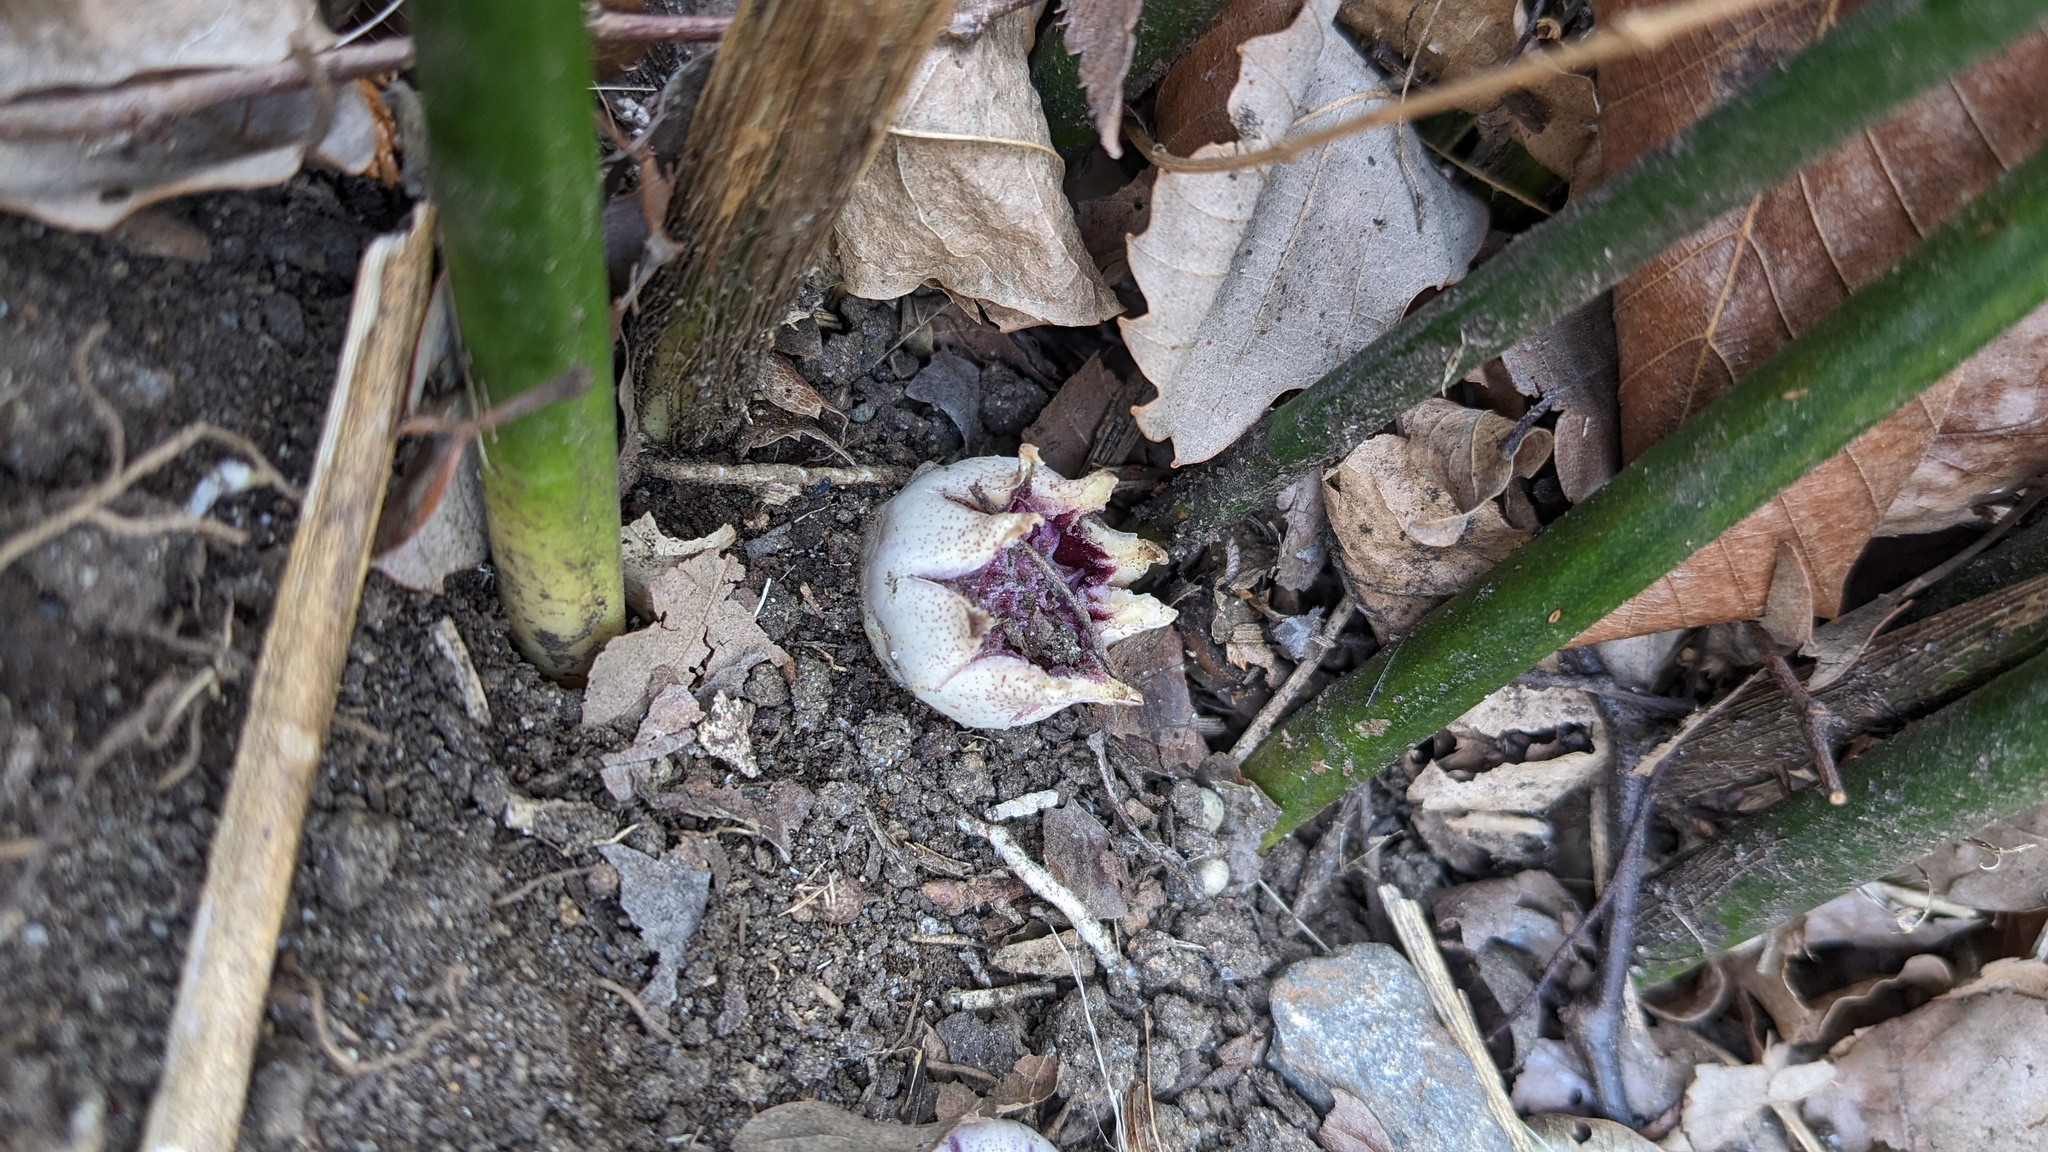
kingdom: Plantae
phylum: Tracheophyta
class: Liliopsida
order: Asparagales
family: Asparagaceae
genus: Aspidistra
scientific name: Aspidistra elatior
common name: Cast-iron-plant
